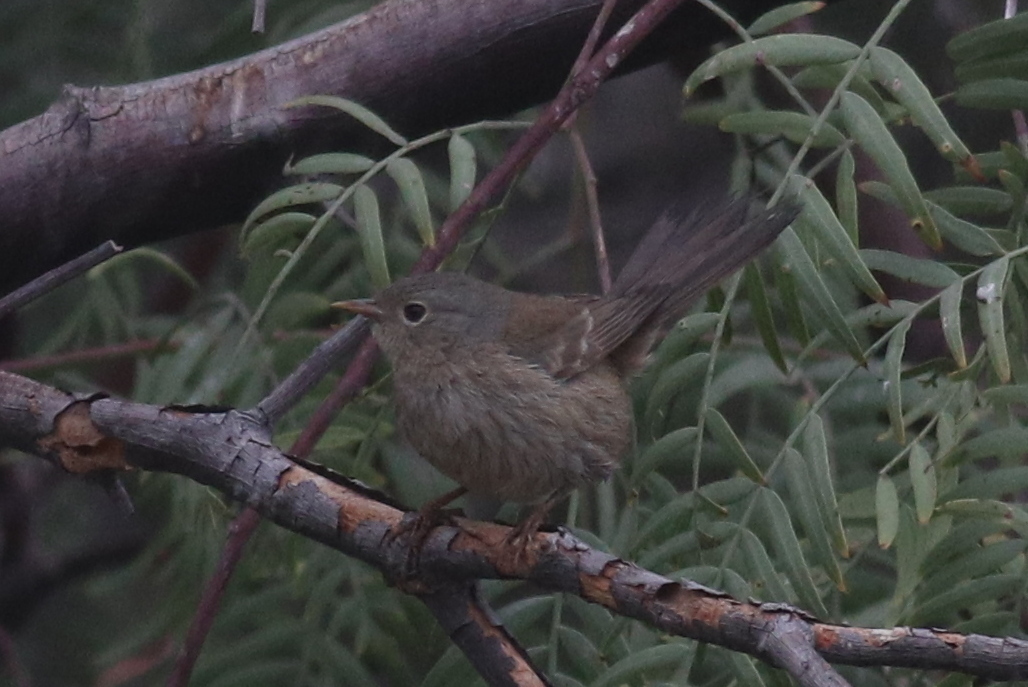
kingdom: Animalia
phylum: Chordata
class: Aves
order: Passeriformes
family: Thraupidae
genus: Xenospingus
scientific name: Xenospingus concolor
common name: Slender-billed finch
